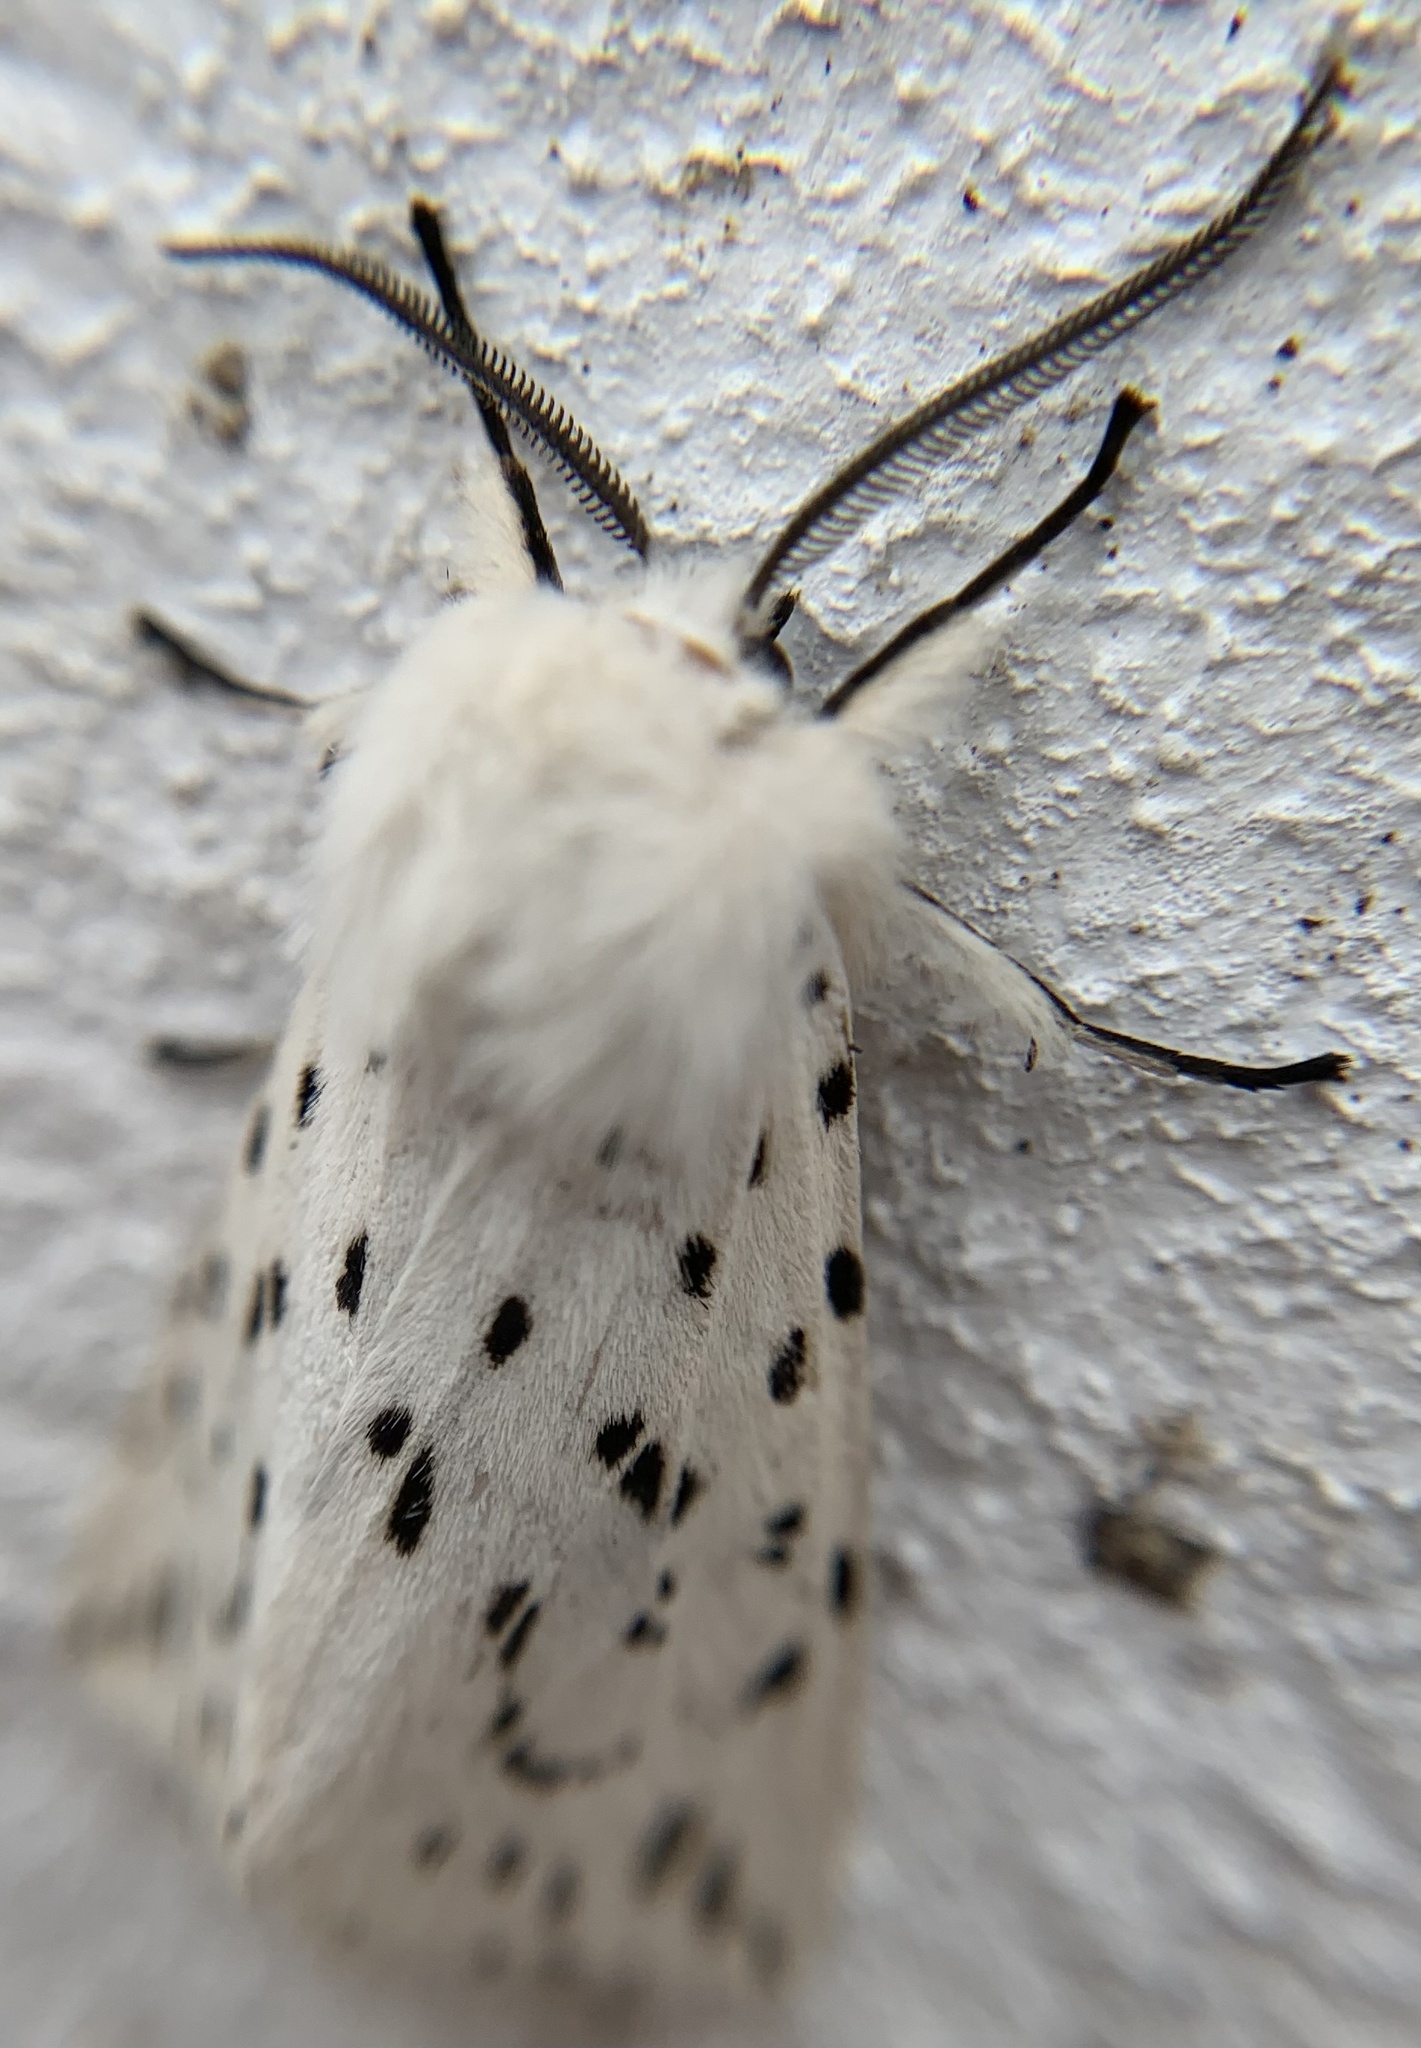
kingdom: Animalia
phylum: Arthropoda
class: Insecta
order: Lepidoptera
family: Erebidae
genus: Spilosoma
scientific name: Spilosoma lubricipeda
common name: White ermine
